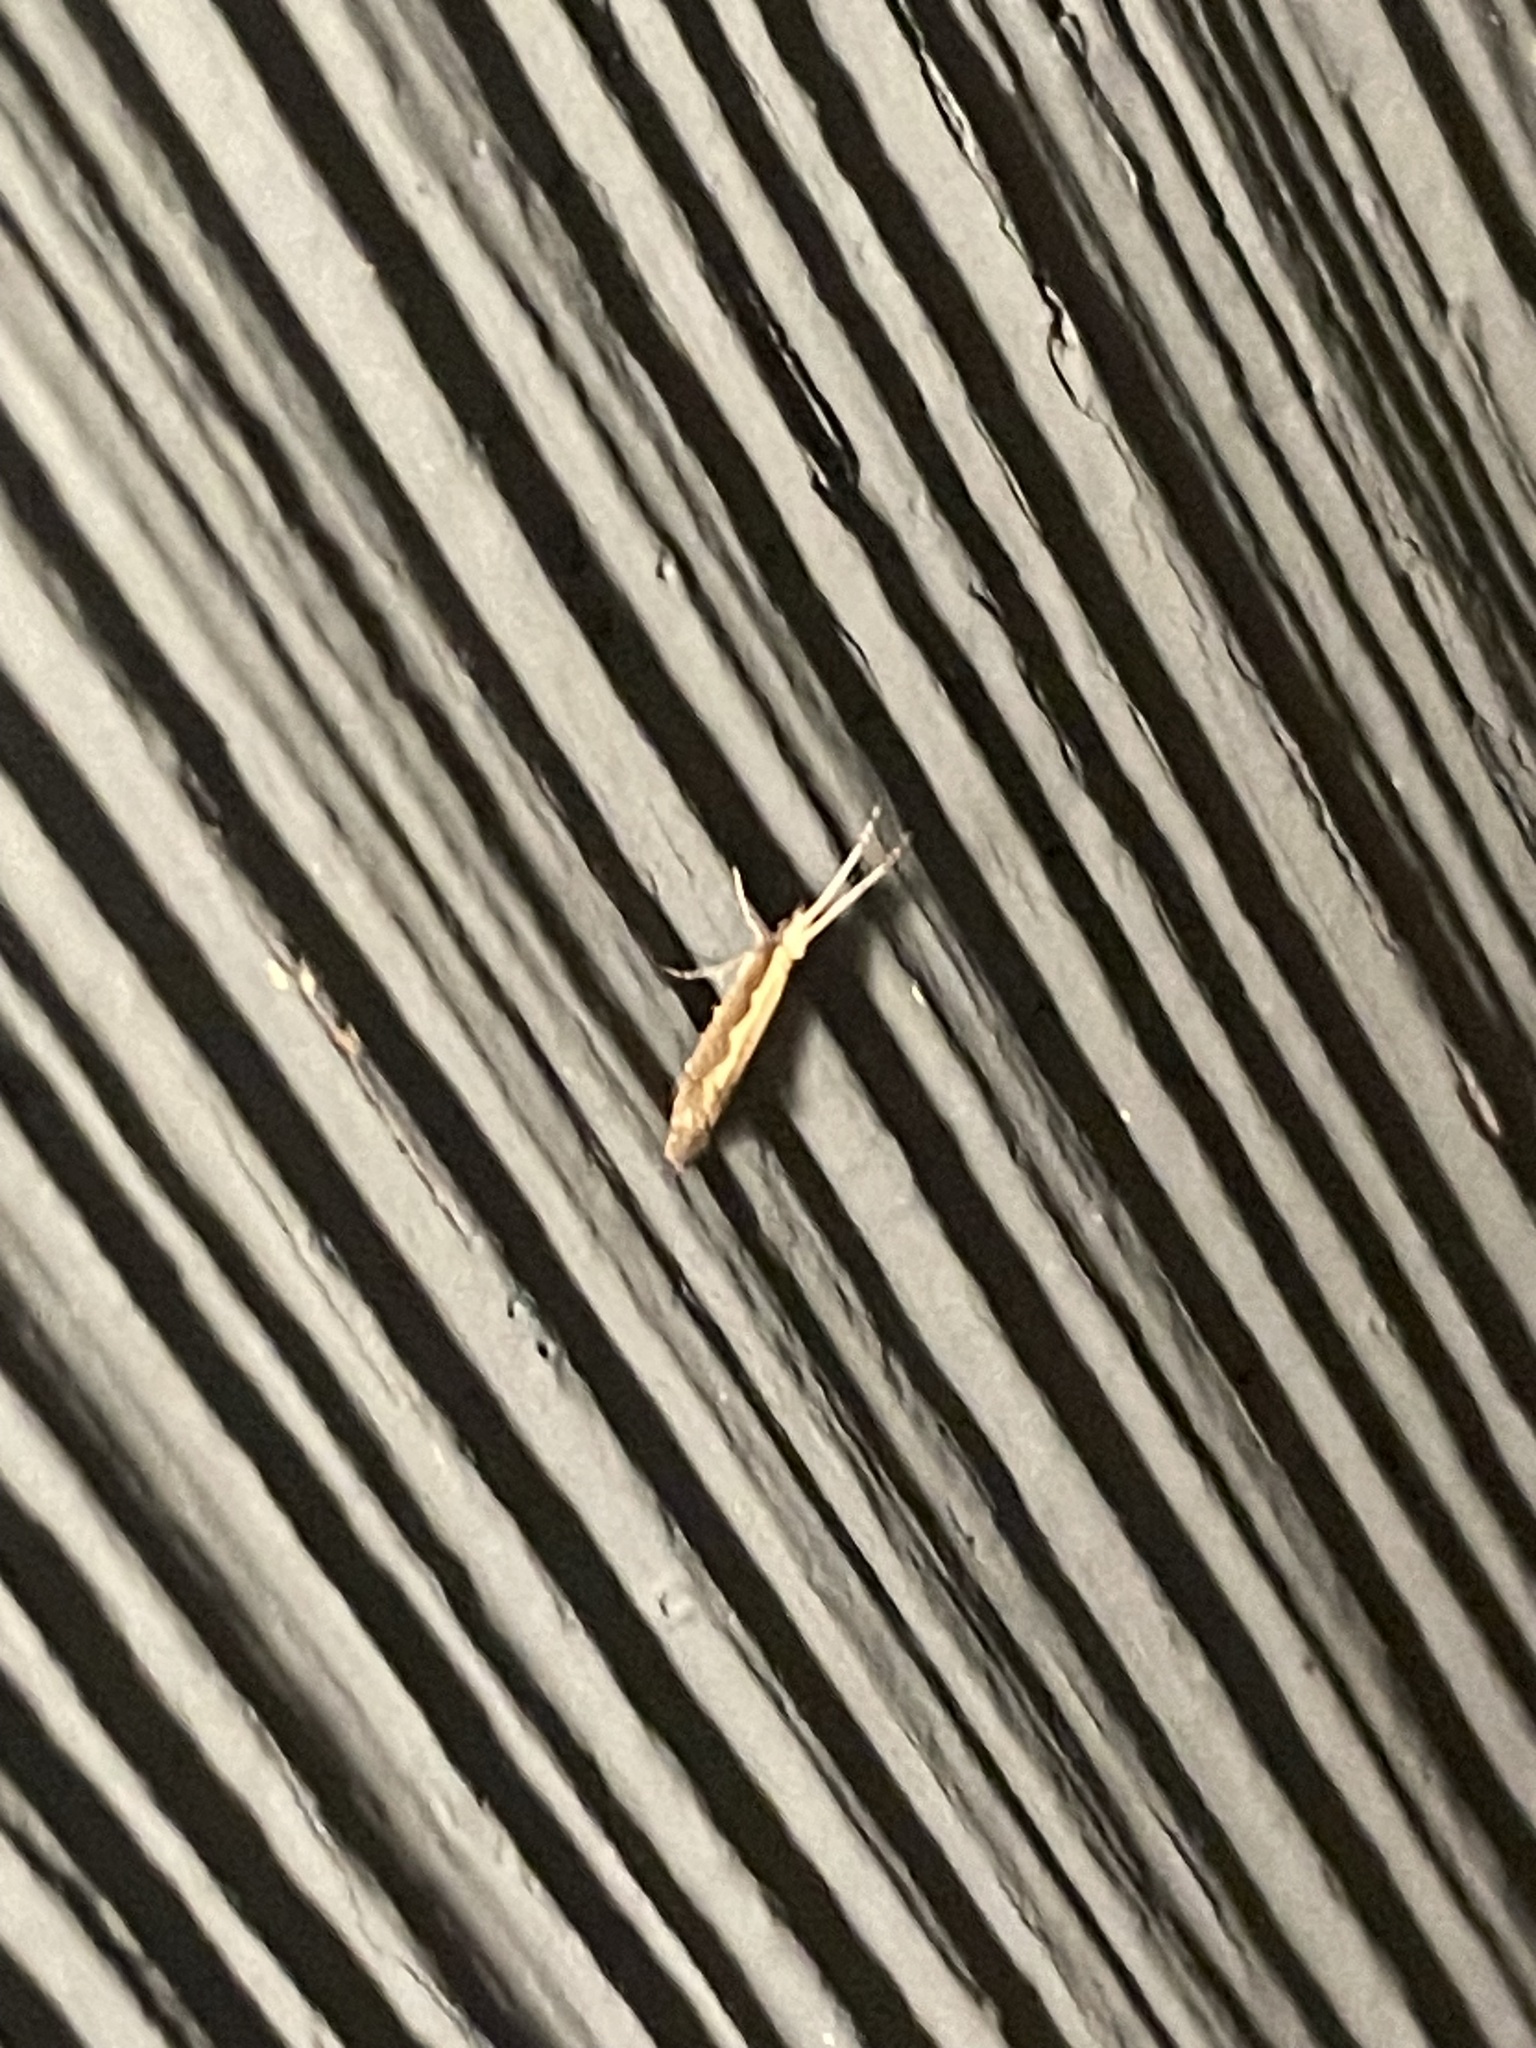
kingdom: Animalia
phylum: Arthropoda
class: Insecta
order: Lepidoptera
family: Plutellidae
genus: Plutella
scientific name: Plutella xylostella
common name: Diamond-back moth
